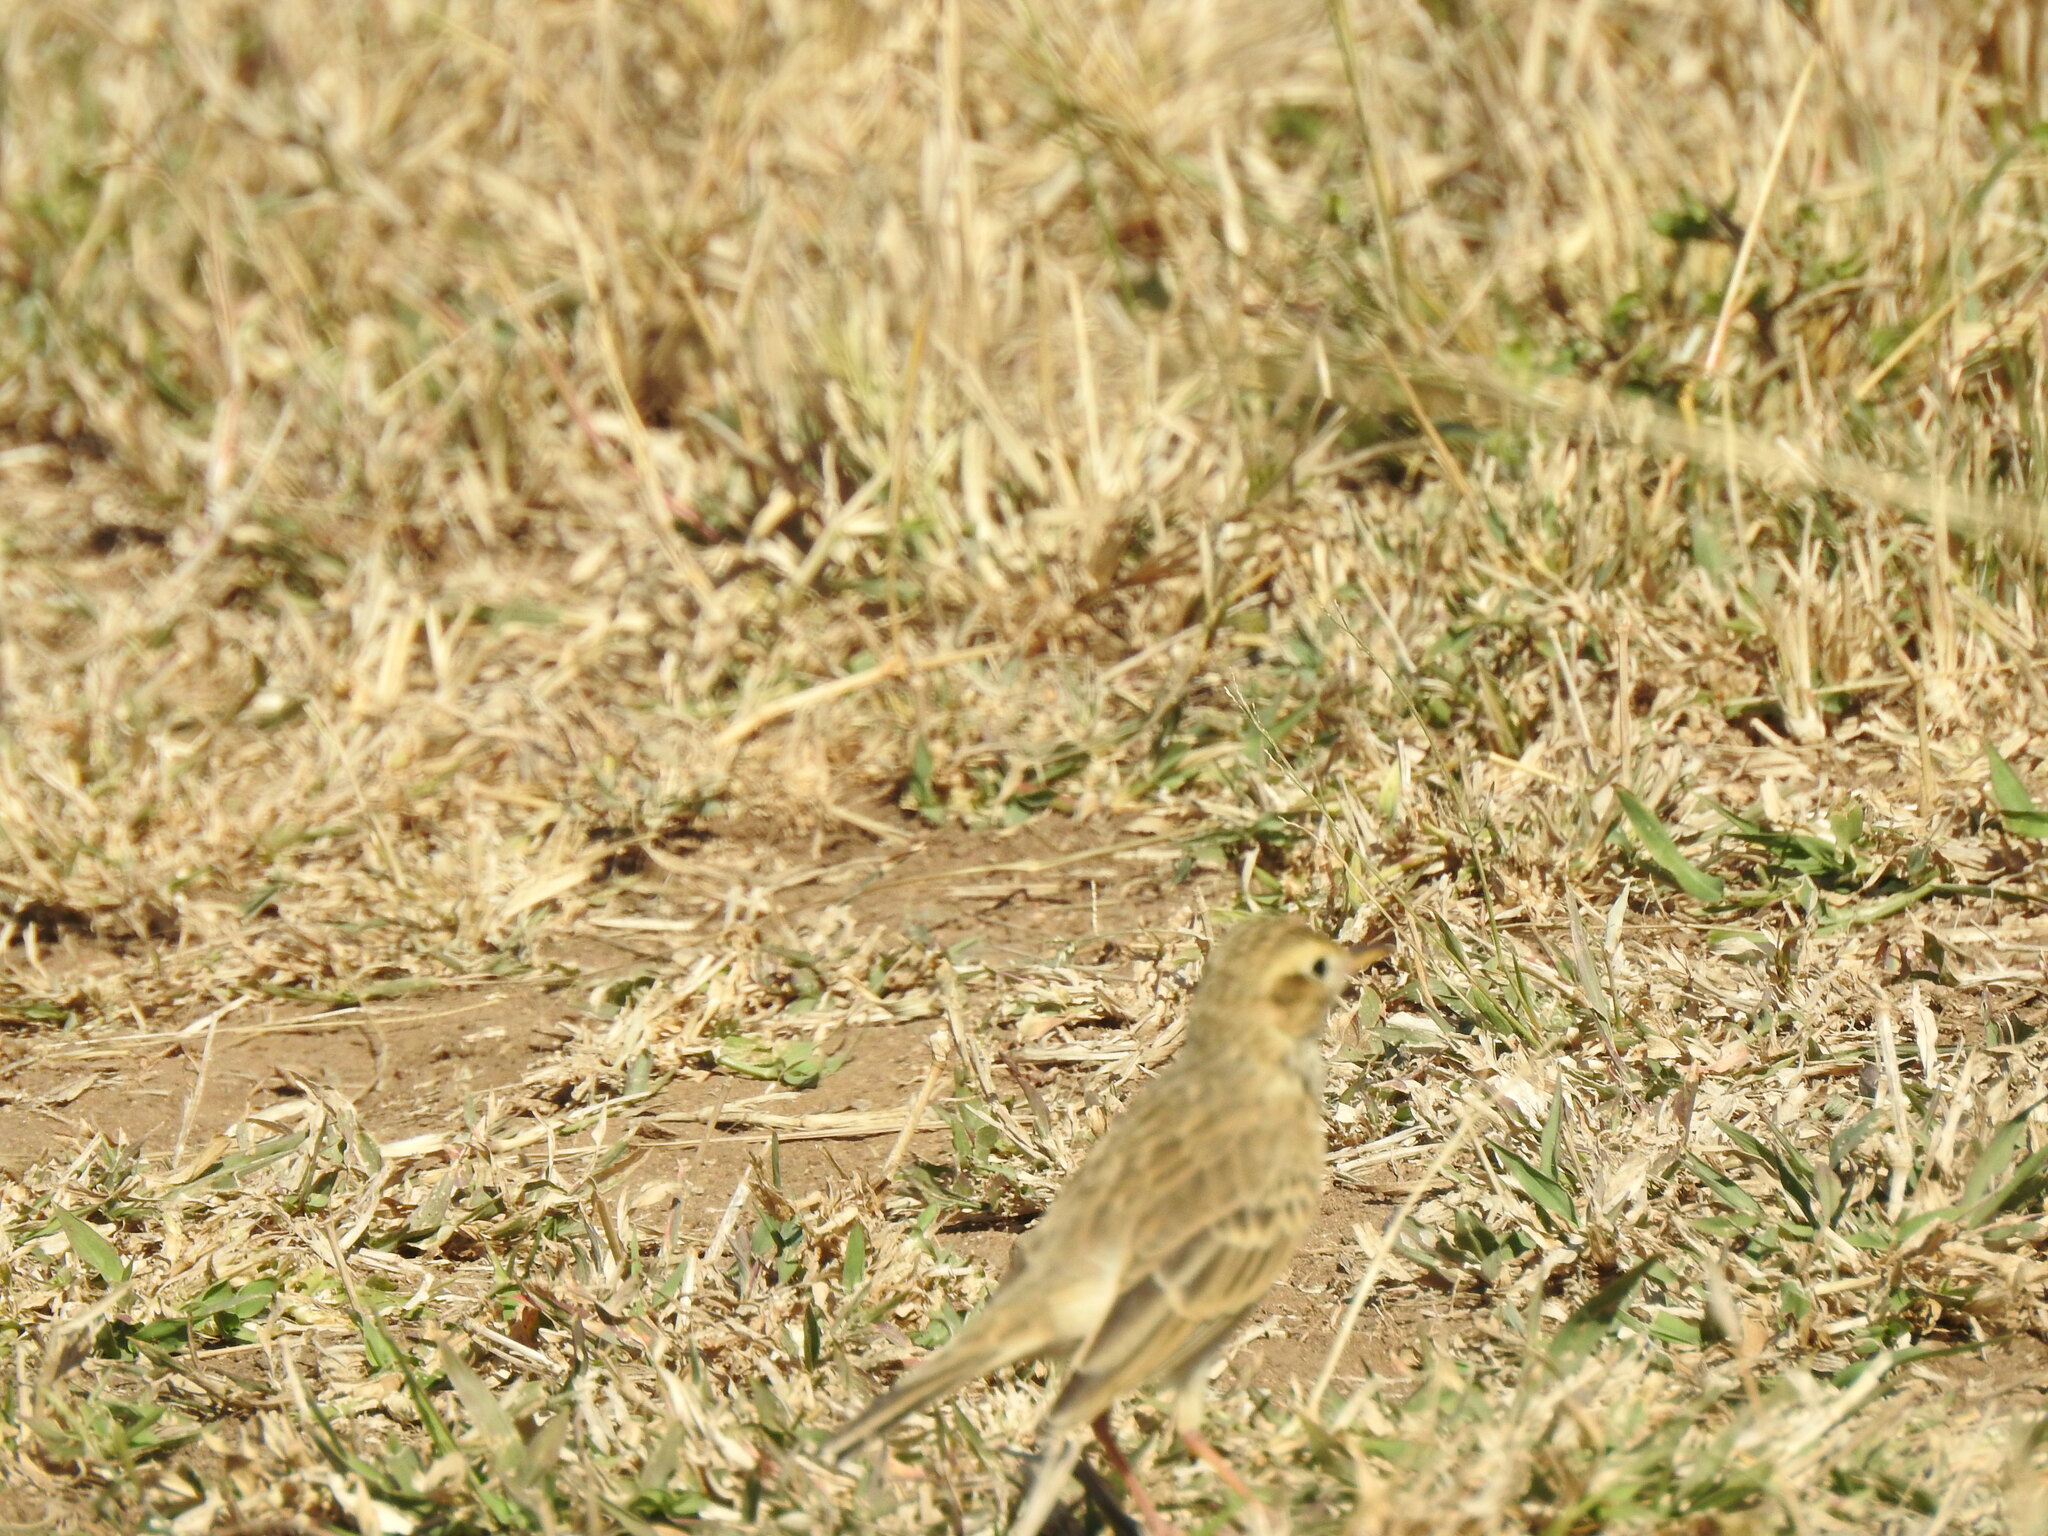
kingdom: Animalia
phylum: Chordata
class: Aves
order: Passeriformes
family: Motacillidae
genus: Anthus
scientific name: Anthus cinnamomeus
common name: African pipit
